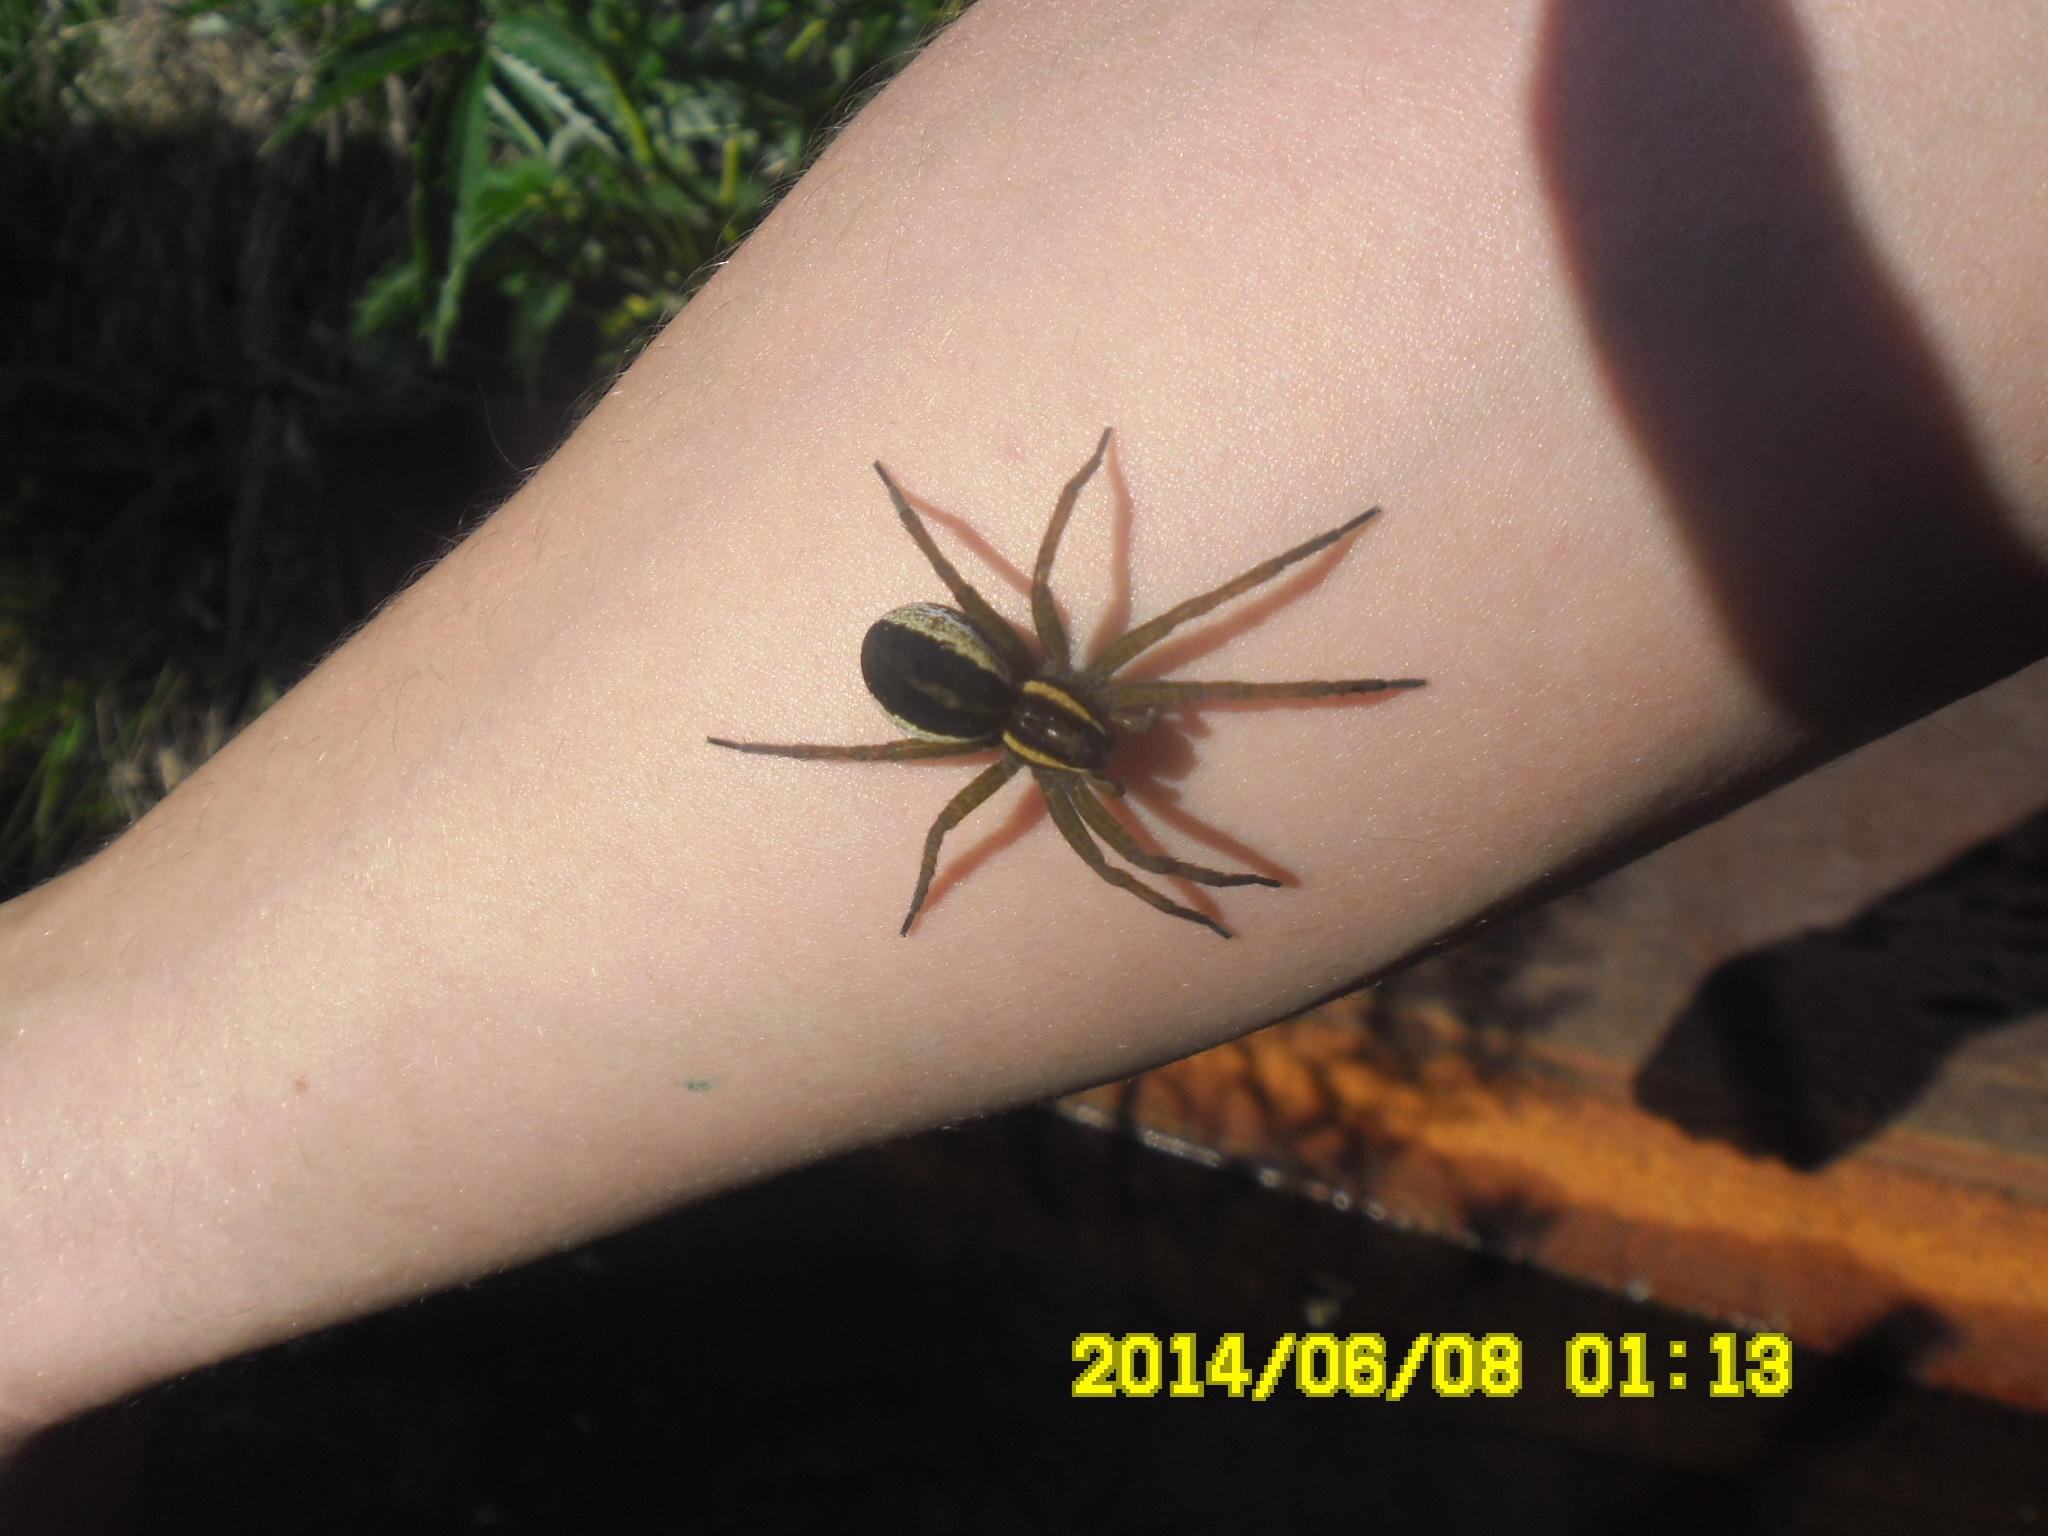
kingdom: Animalia
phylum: Arthropoda
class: Arachnida
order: Araneae
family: Pisauridae
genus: Dolomedes
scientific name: Dolomedes fimbriatus
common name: Raft spider
